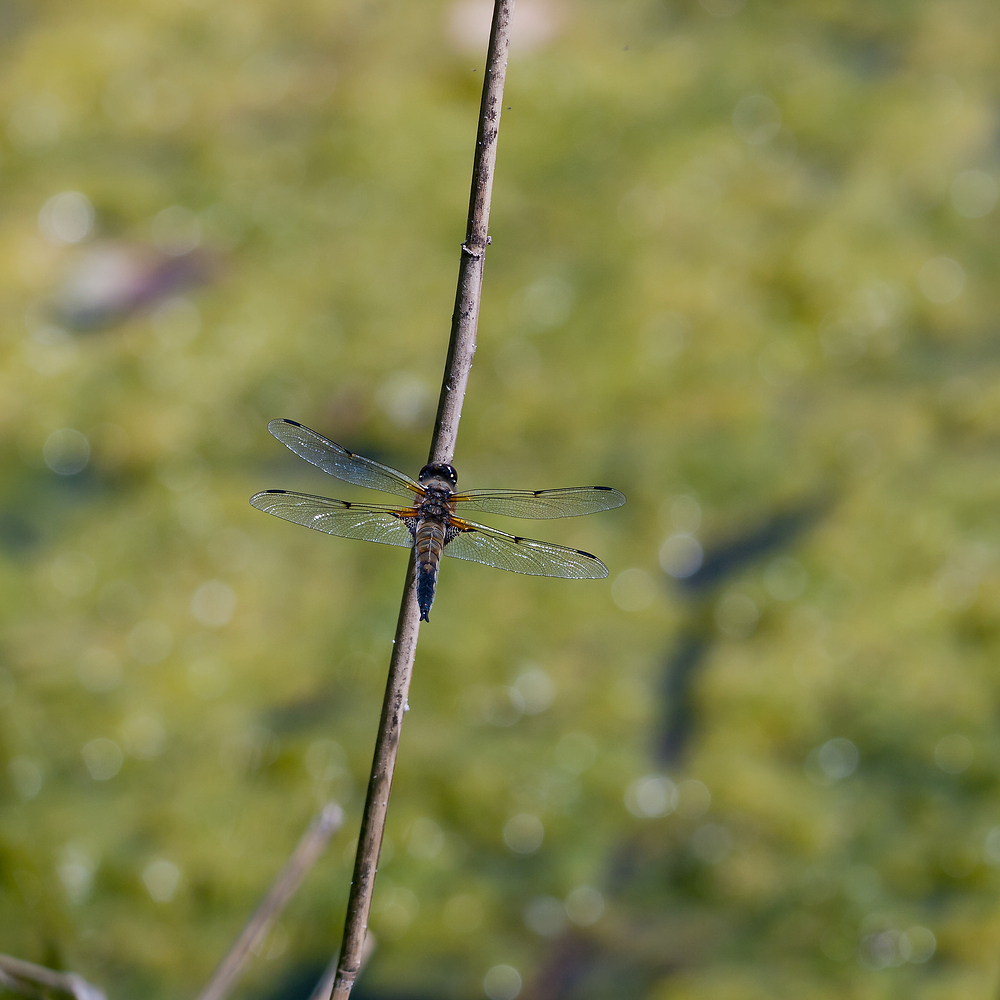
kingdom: Animalia
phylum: Arthropoda
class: Insecta
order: Odonata
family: Libellulidae
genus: Libellula
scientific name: Libellula quadrimaculata
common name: Four-spotted chaser
